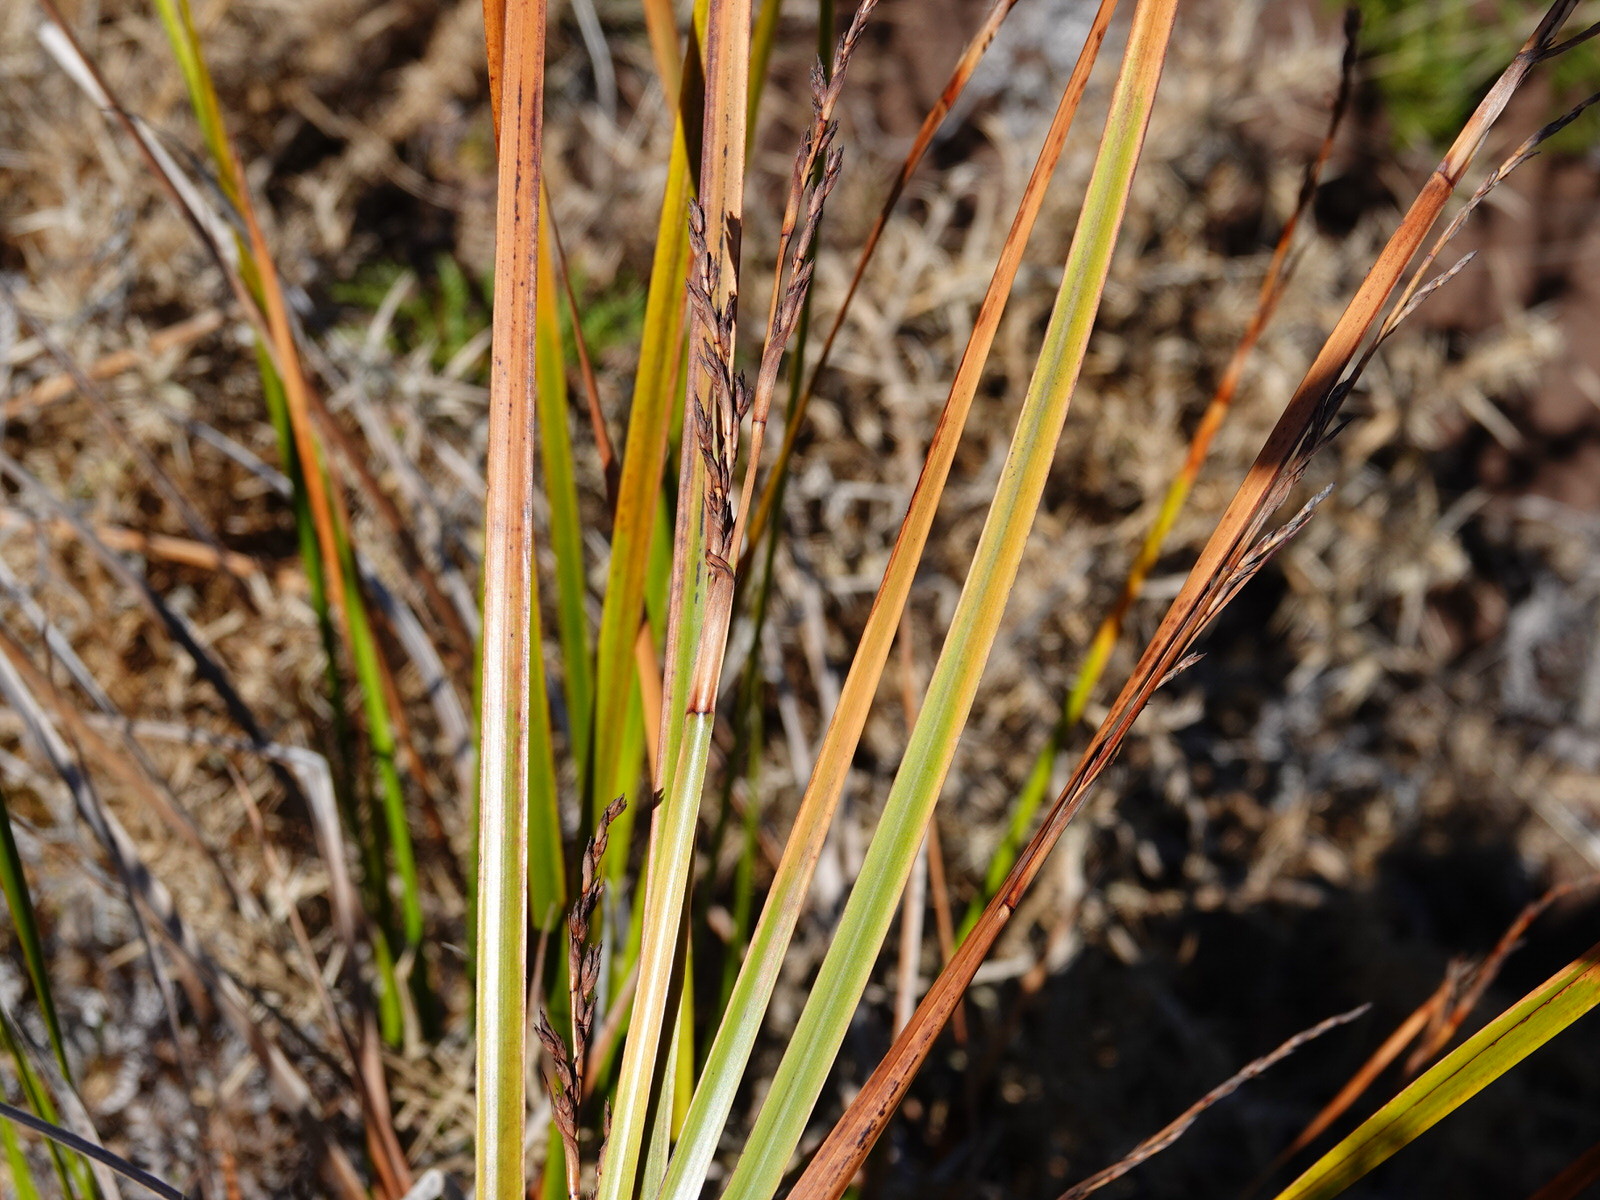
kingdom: Plantae
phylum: Tracheophyta
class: Liliopsida
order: Poales
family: Cyperaceae
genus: Lepidosperma
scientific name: Lepidosperma laterale
